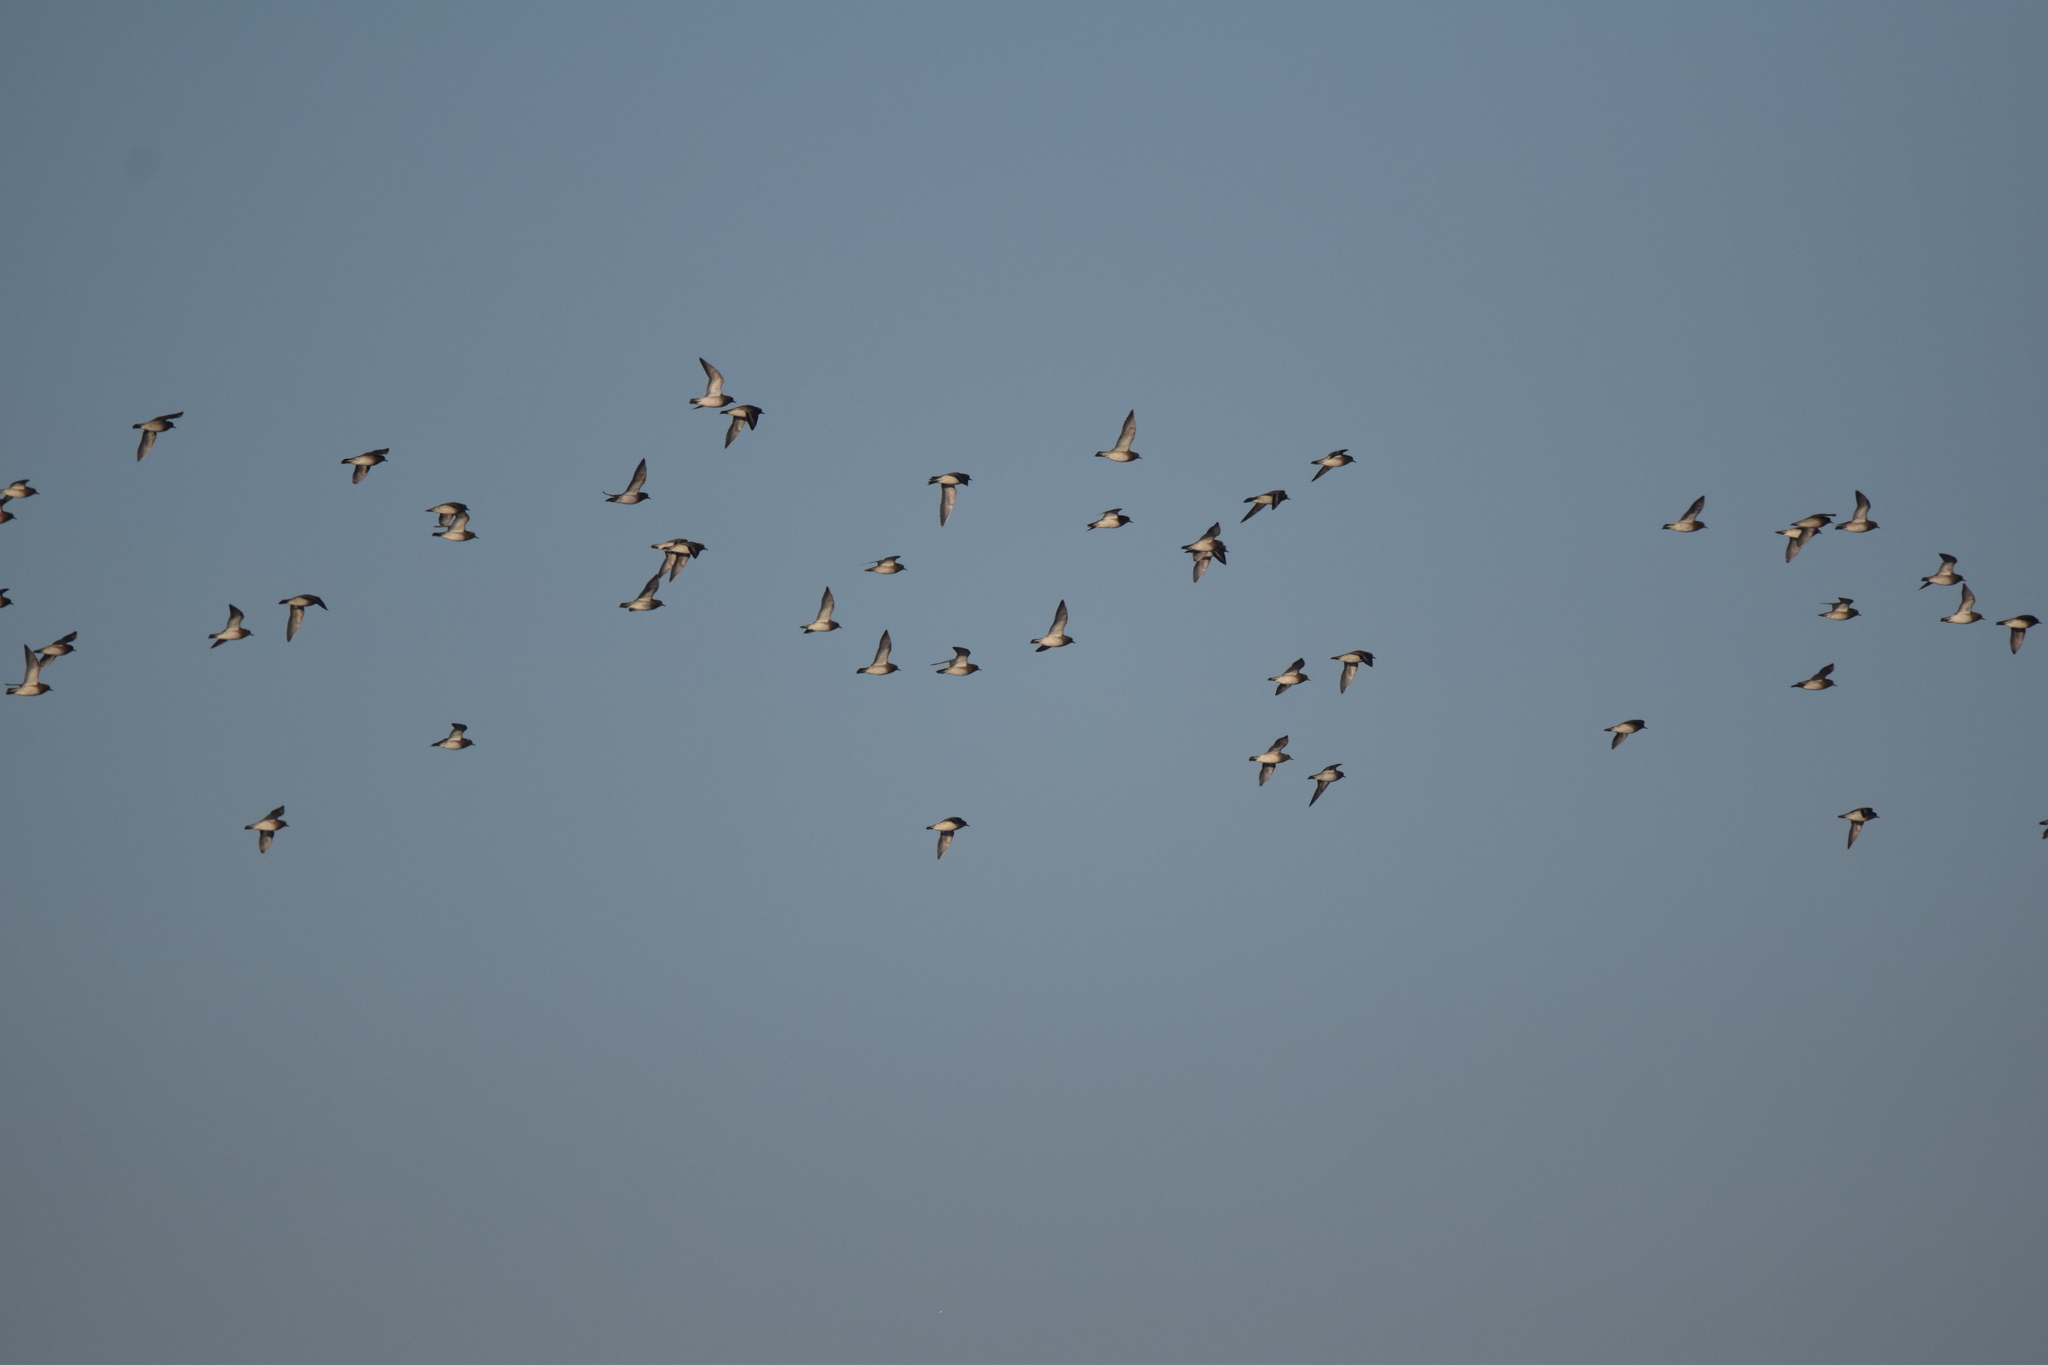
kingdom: Animalia
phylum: Chordata
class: Aves
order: Charadriiformes
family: Charadriidae
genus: Pluvialis
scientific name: Pluvialis apricaria
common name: European golden plover
